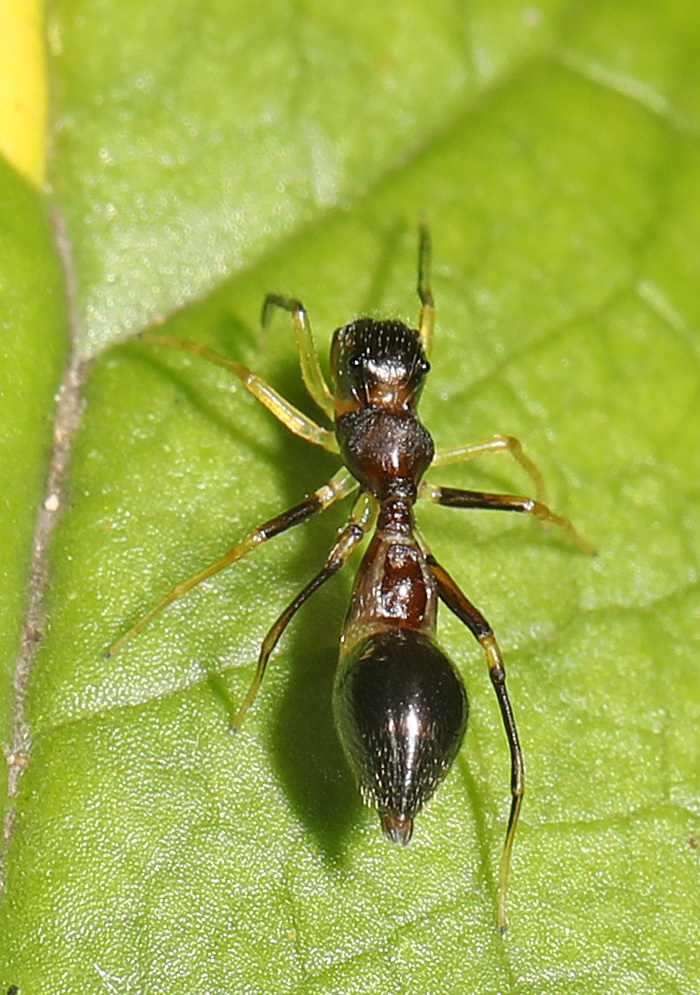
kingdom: Animalia
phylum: Arthropoda
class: Arachnida
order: Araneae
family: Salticidae
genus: Synemosyna
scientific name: Synemosyna formica
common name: Slender ant-mimic jumping spider
